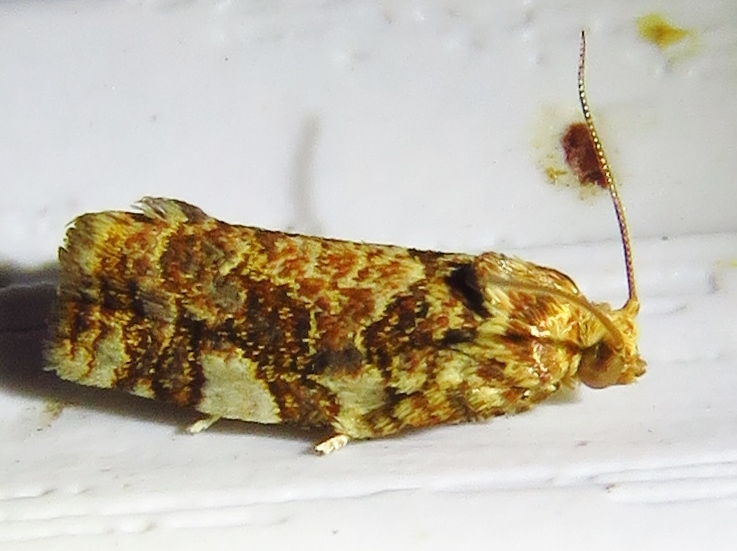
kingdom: Animalia
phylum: Arthropoda
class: Insecta
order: Lepidoptera
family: Tortricidae
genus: Archips
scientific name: Archips argyrospila
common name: Fruit-tree leafroller moth
